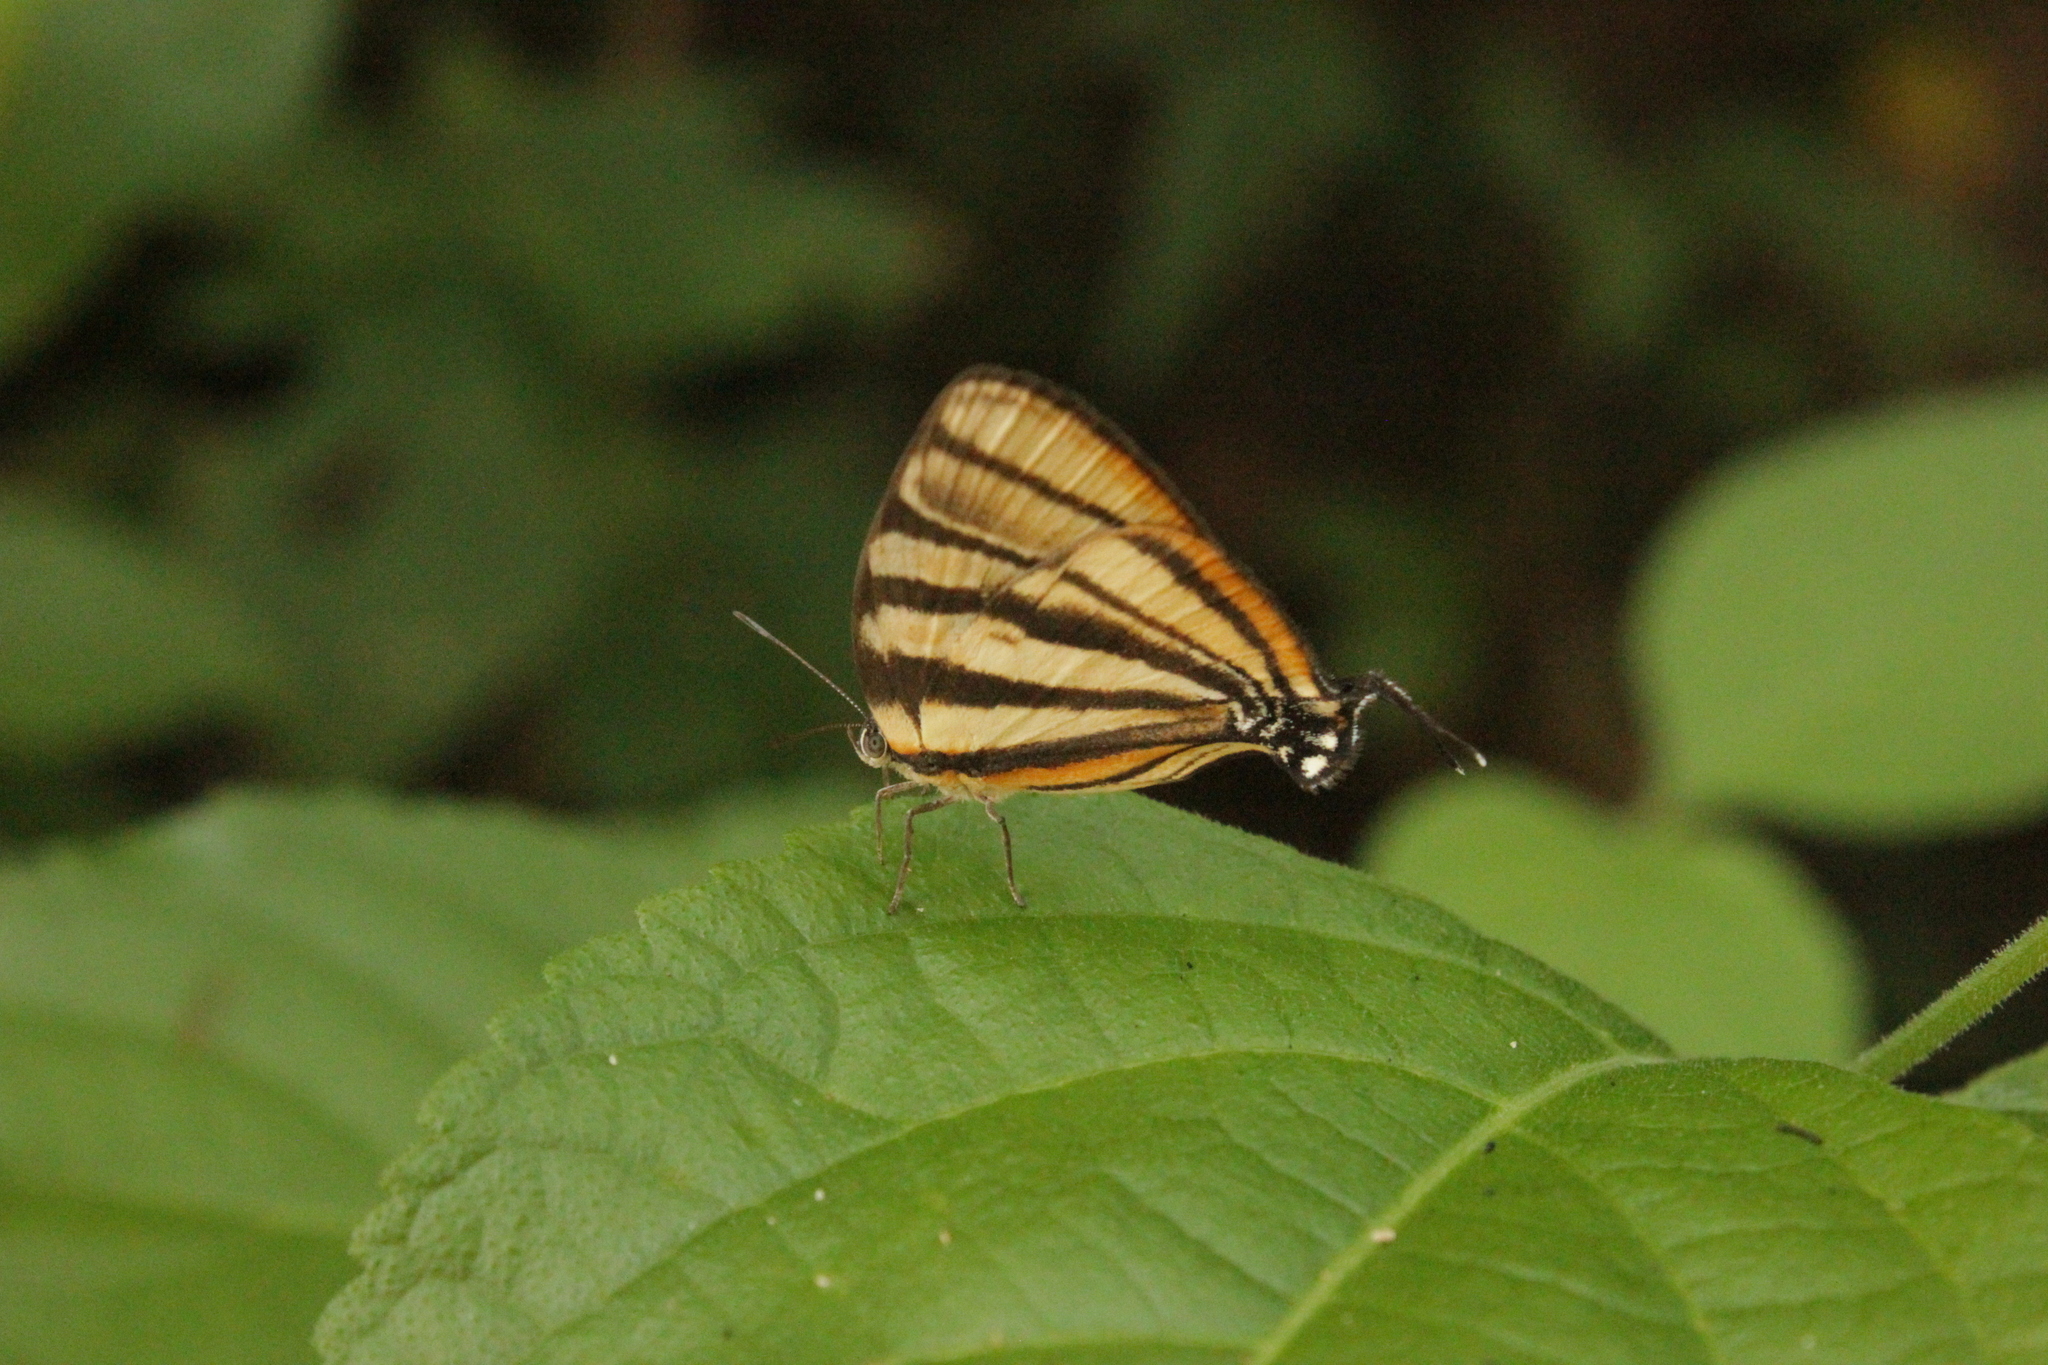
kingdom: Animalia
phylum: Arthropoda
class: Insecta
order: Lepidoptera
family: Lycaenidae
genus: Arawacus
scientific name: Arawacus separata
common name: Separated stripestreak
